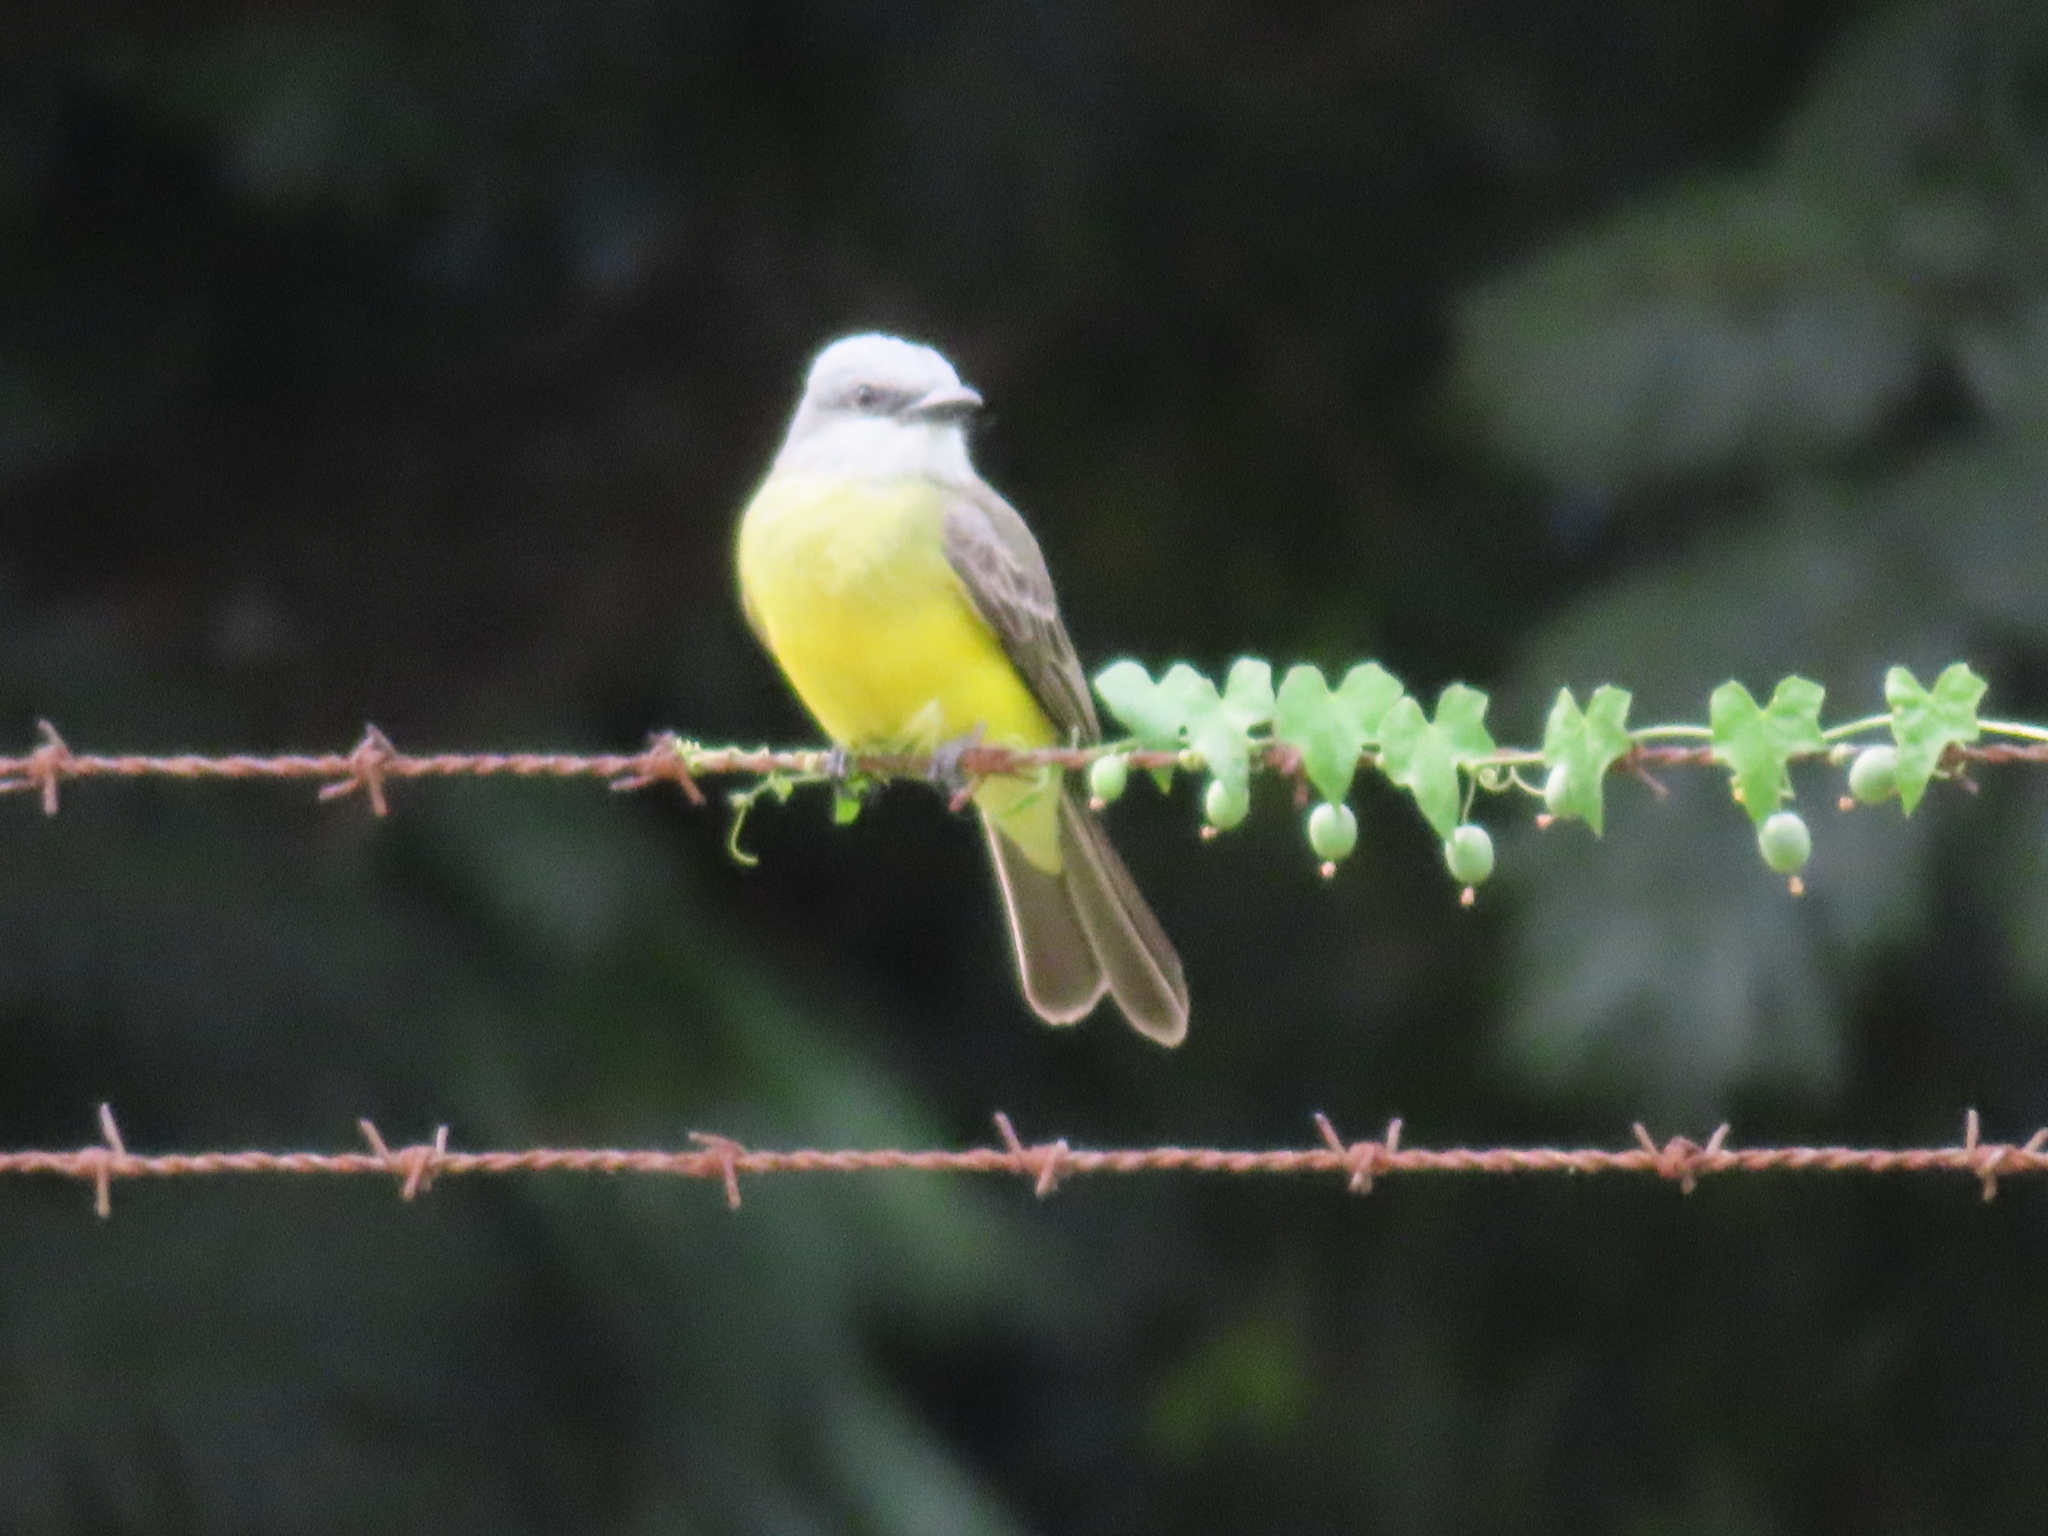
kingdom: Animalia
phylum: Chordata
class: Aves
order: Passeriformes
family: Tyrannidae
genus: Tyrannus
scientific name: Tyrannus melancholicus
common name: Tropical kingbird
